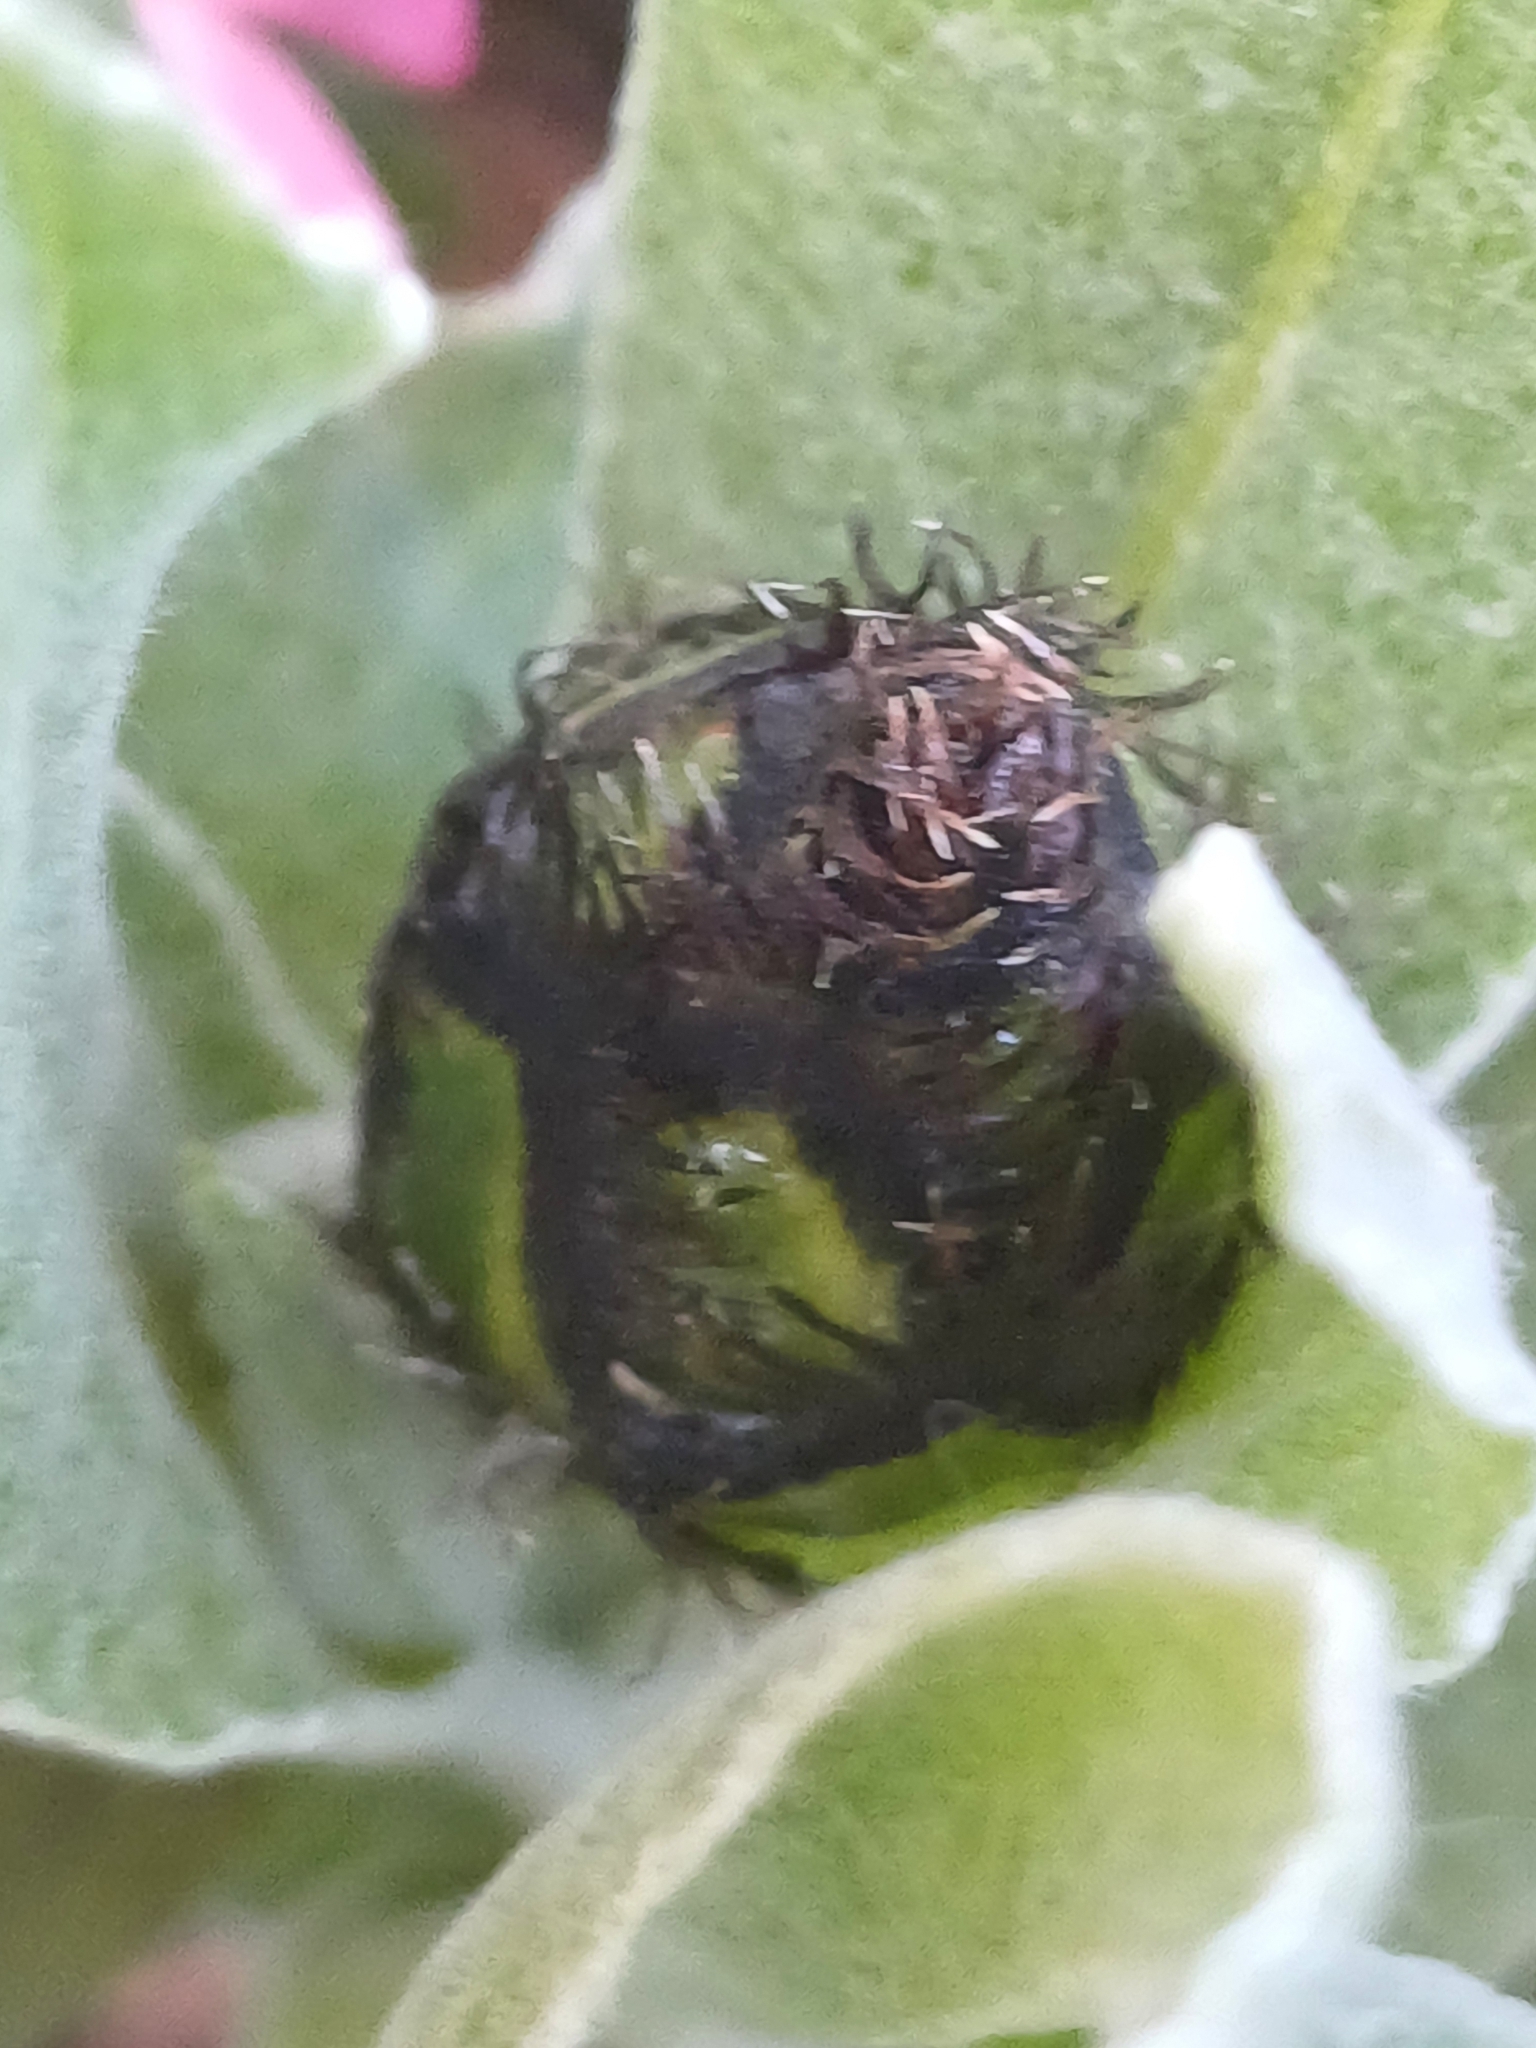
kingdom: Plantae
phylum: Tracheophyta
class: Magnoliopsida
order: Asterales
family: Asteraceae
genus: Centaurea
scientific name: Centaurea triumfettii
